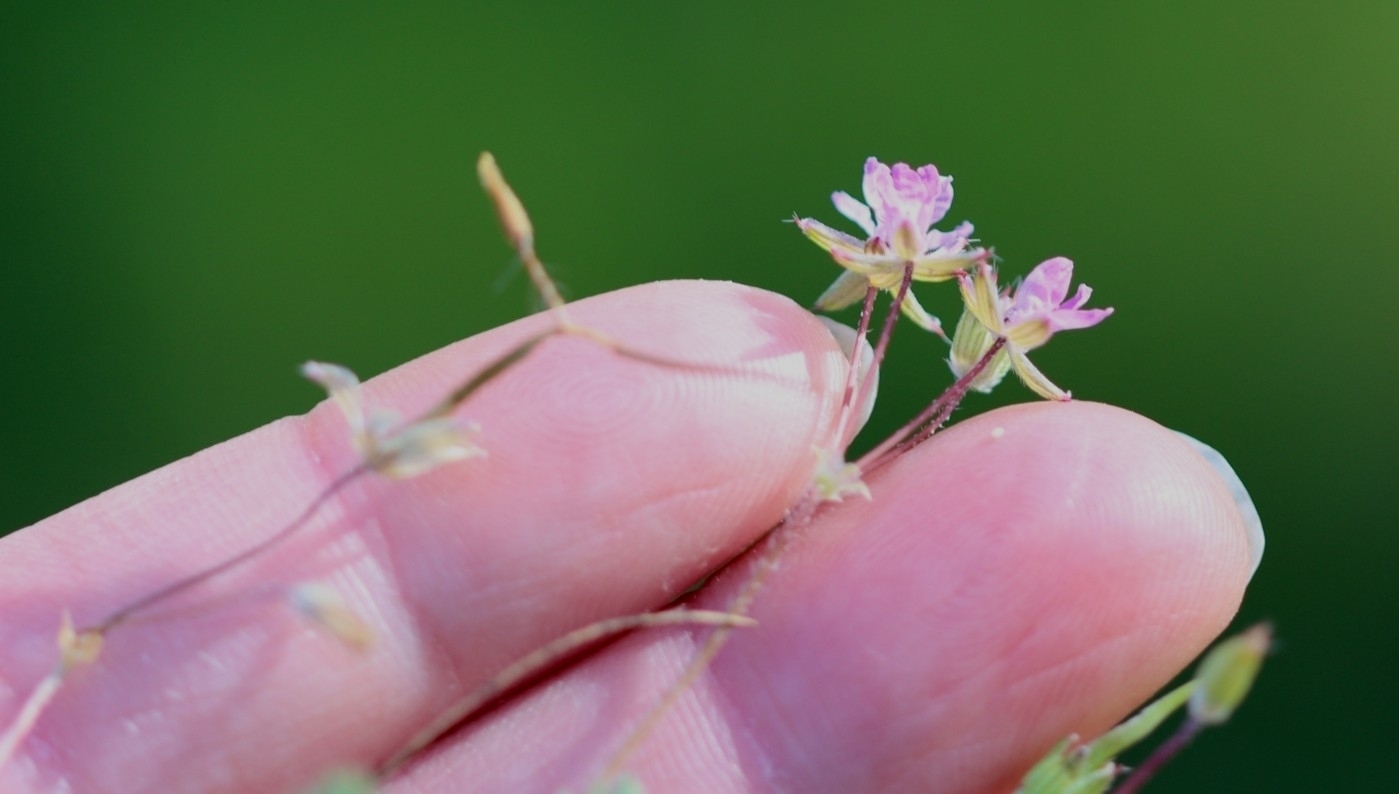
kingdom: Plantae
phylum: Tracheophyta
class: Magnoliopsida
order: Geraniales
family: Geraniaceae
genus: Erodium
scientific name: Erodium cicutarium
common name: Common stork's-bill
